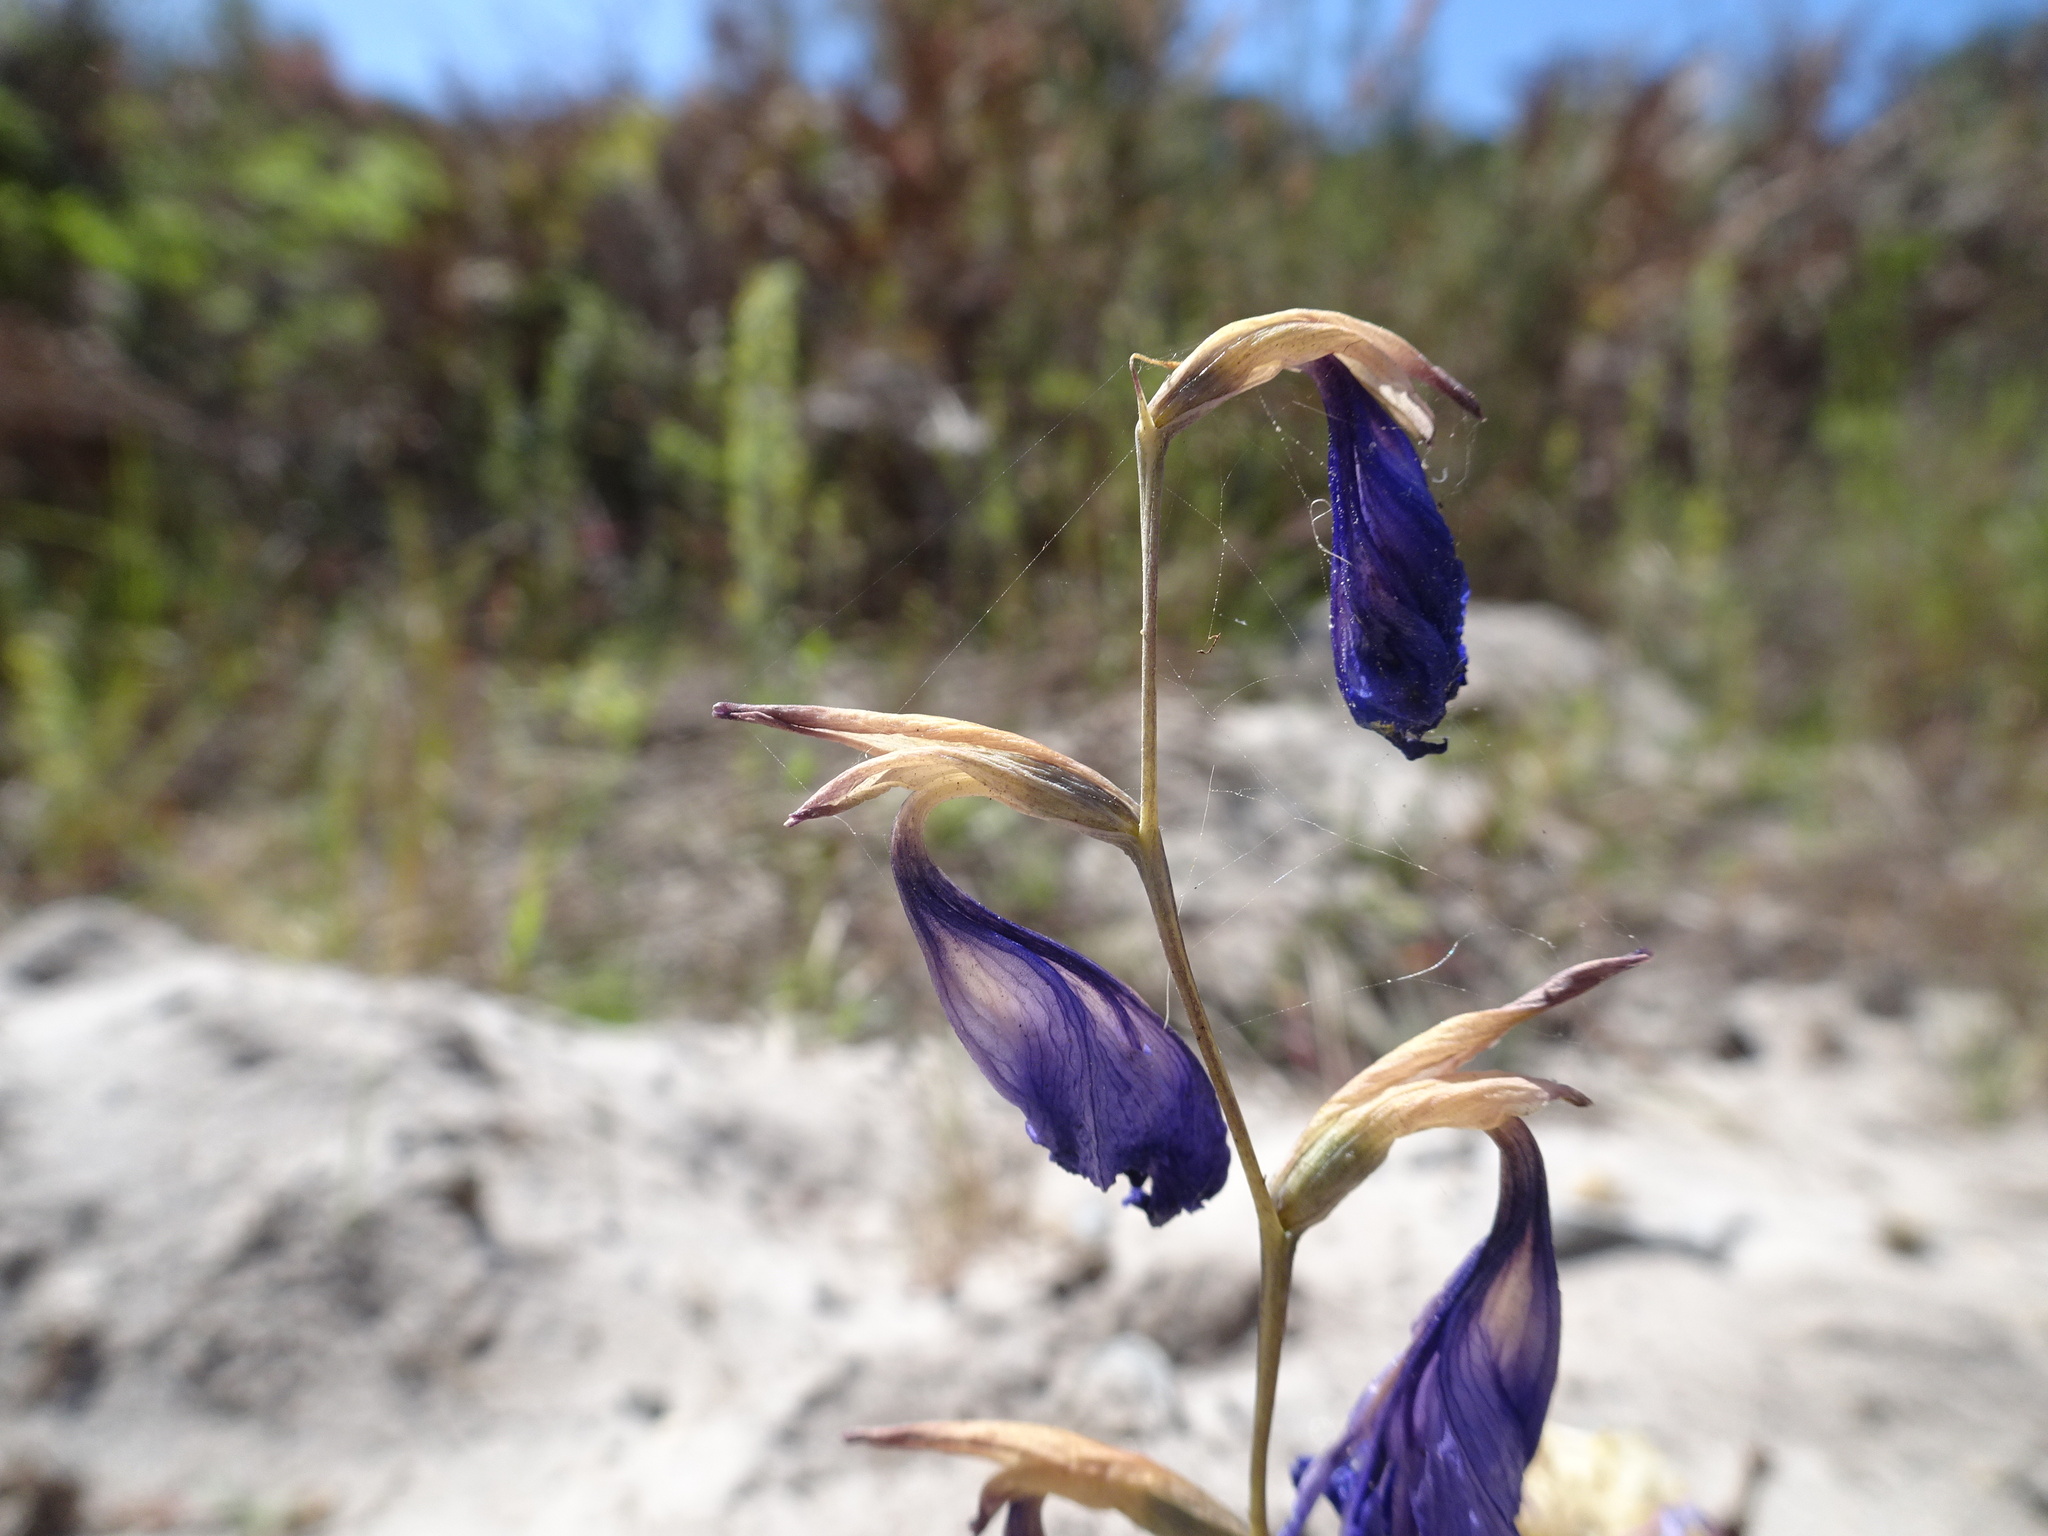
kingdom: Plantae
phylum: Tracheophyta
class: Liliopsida
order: Asparagales
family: Iridaceae
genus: Gladiolus
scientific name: Gladiolus rogersii
